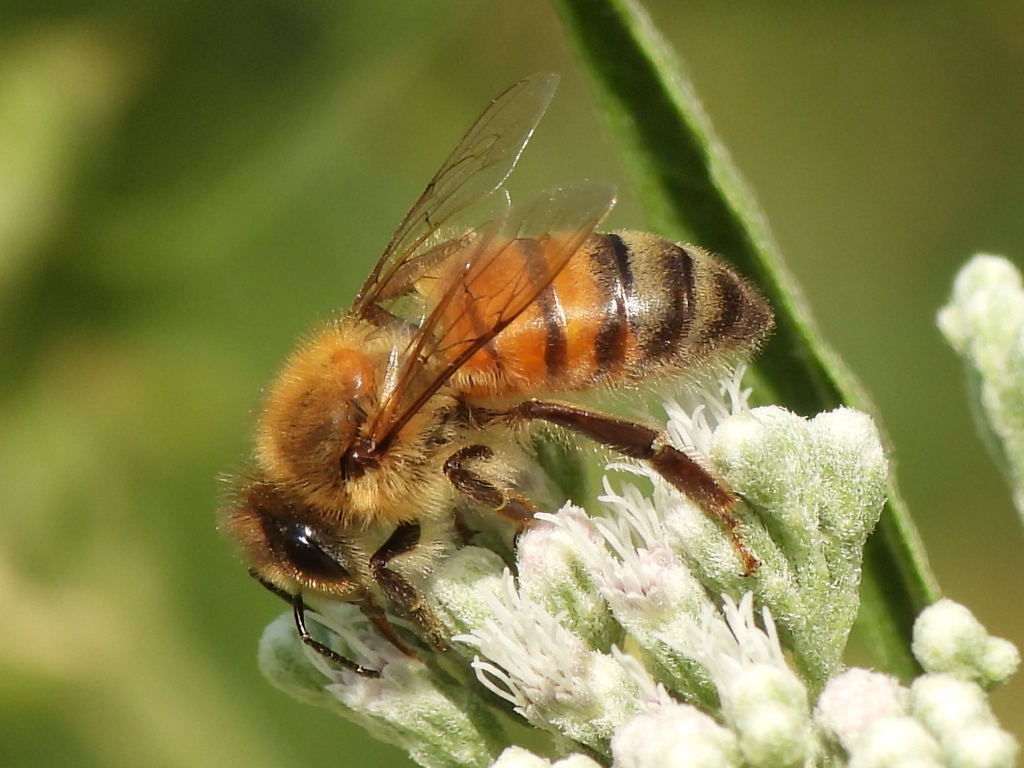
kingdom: Animalia
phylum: Arthropoda
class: Insecta
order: Hymenoptera
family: Apidae
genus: Apis
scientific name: Apis mellifera
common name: Honey bee
